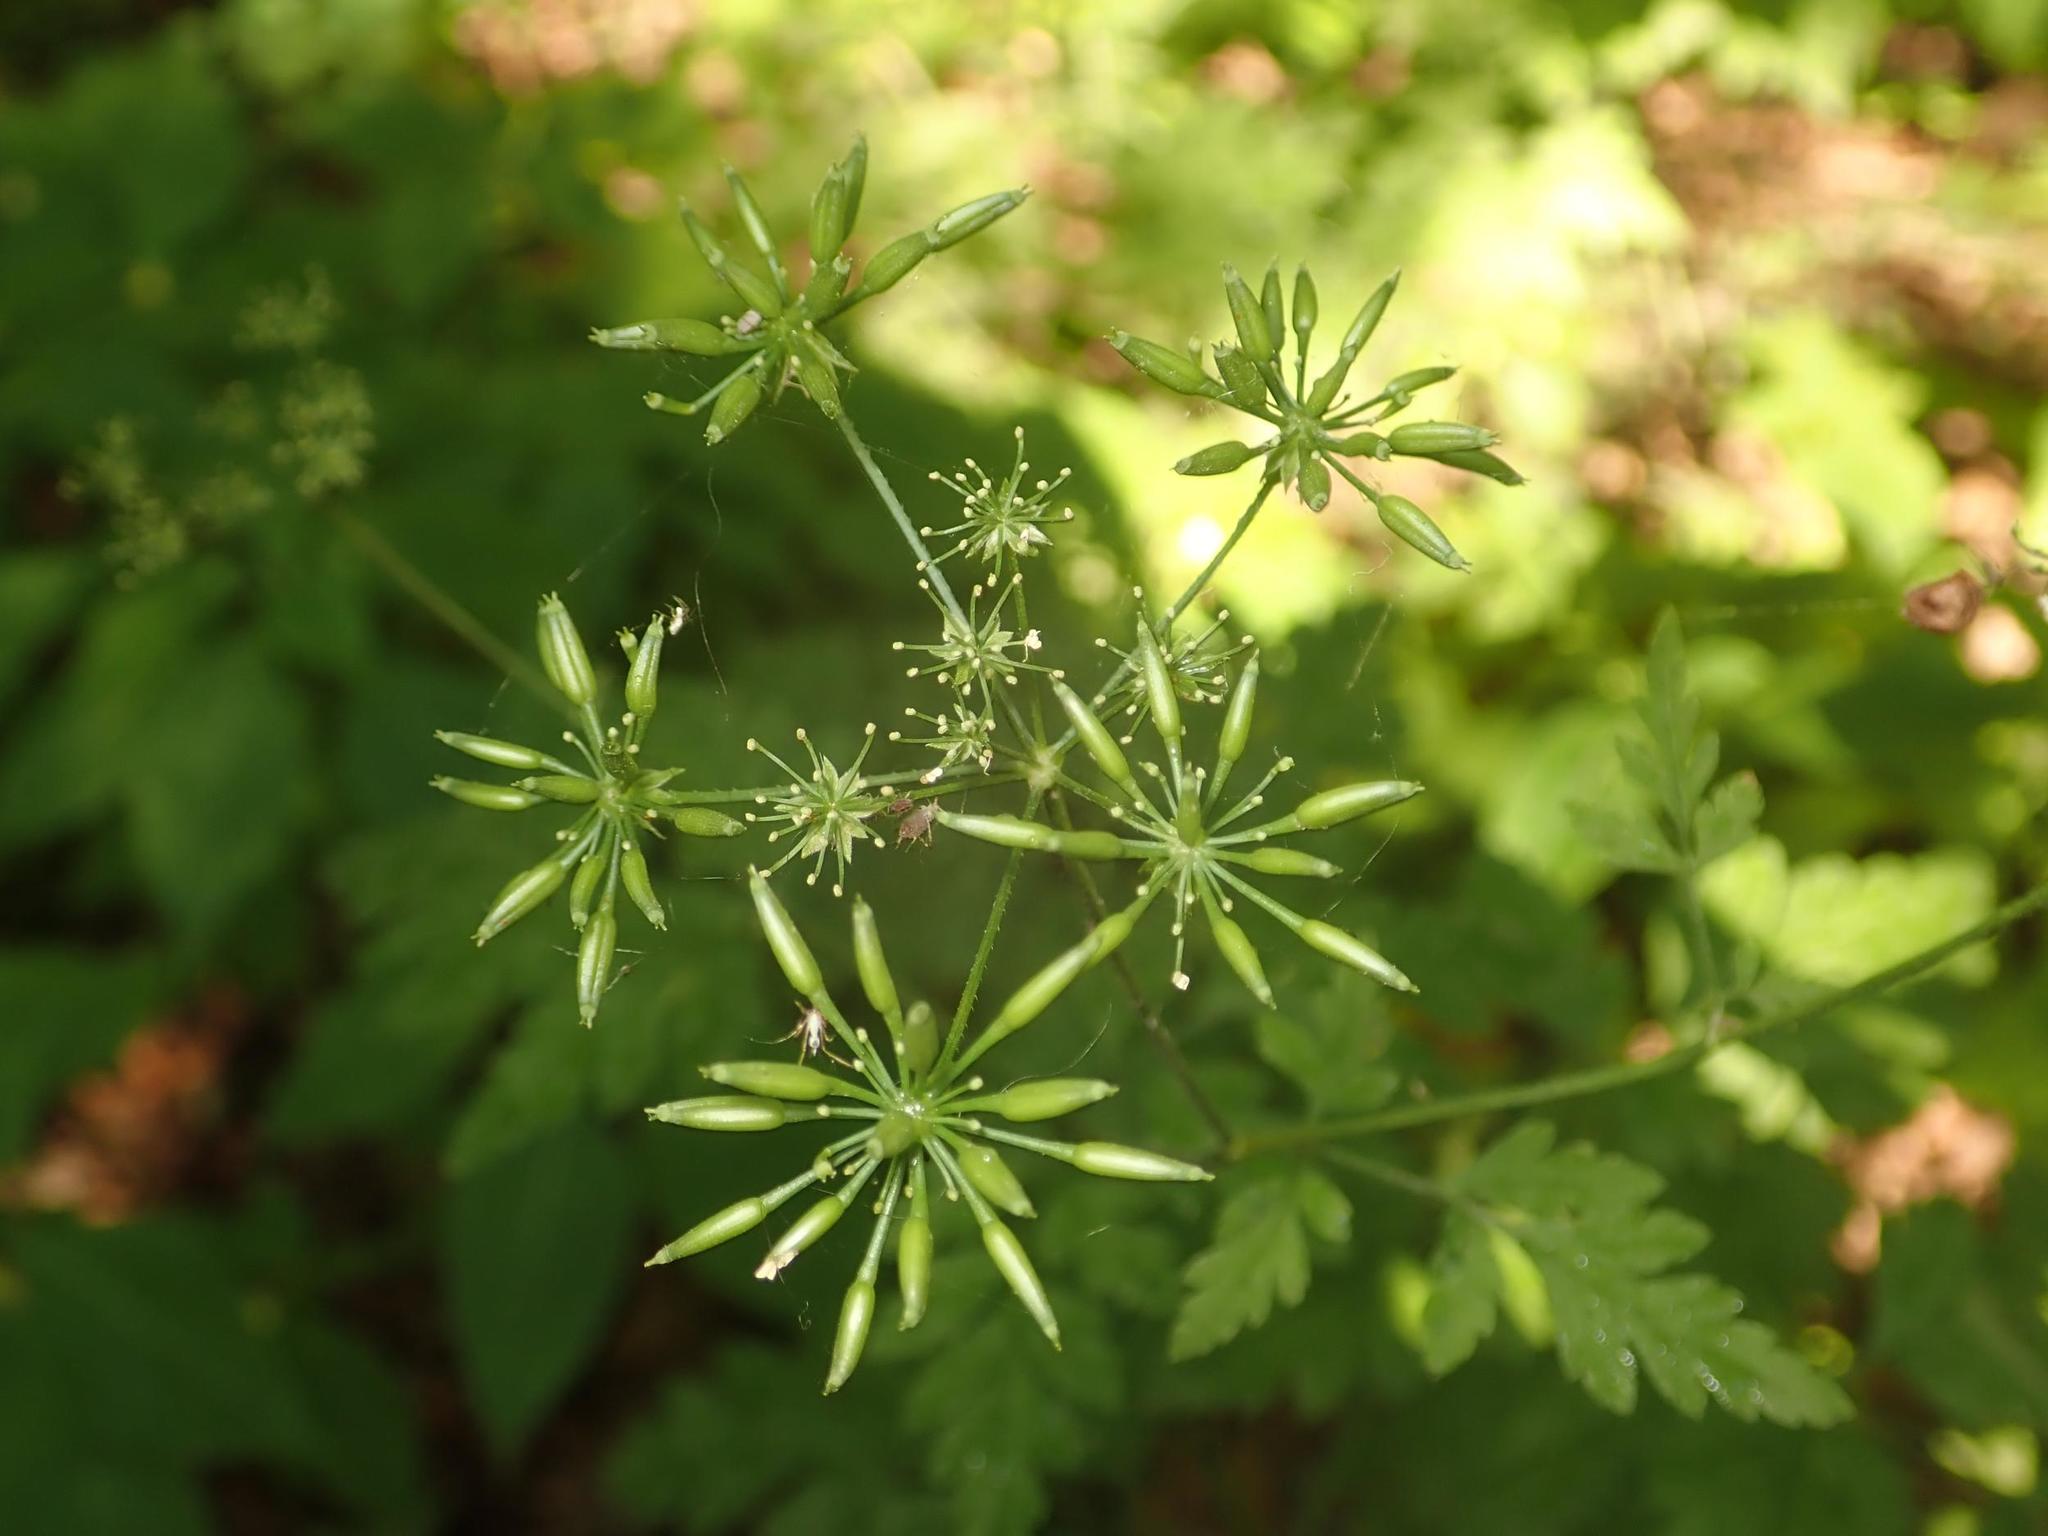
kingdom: Plantae
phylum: Tracheophyta
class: Magnoliopsida
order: Apiales
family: Apiaceae
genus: Chaerophyllum
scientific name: Chaerophyllum temulum
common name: Rough chervil
